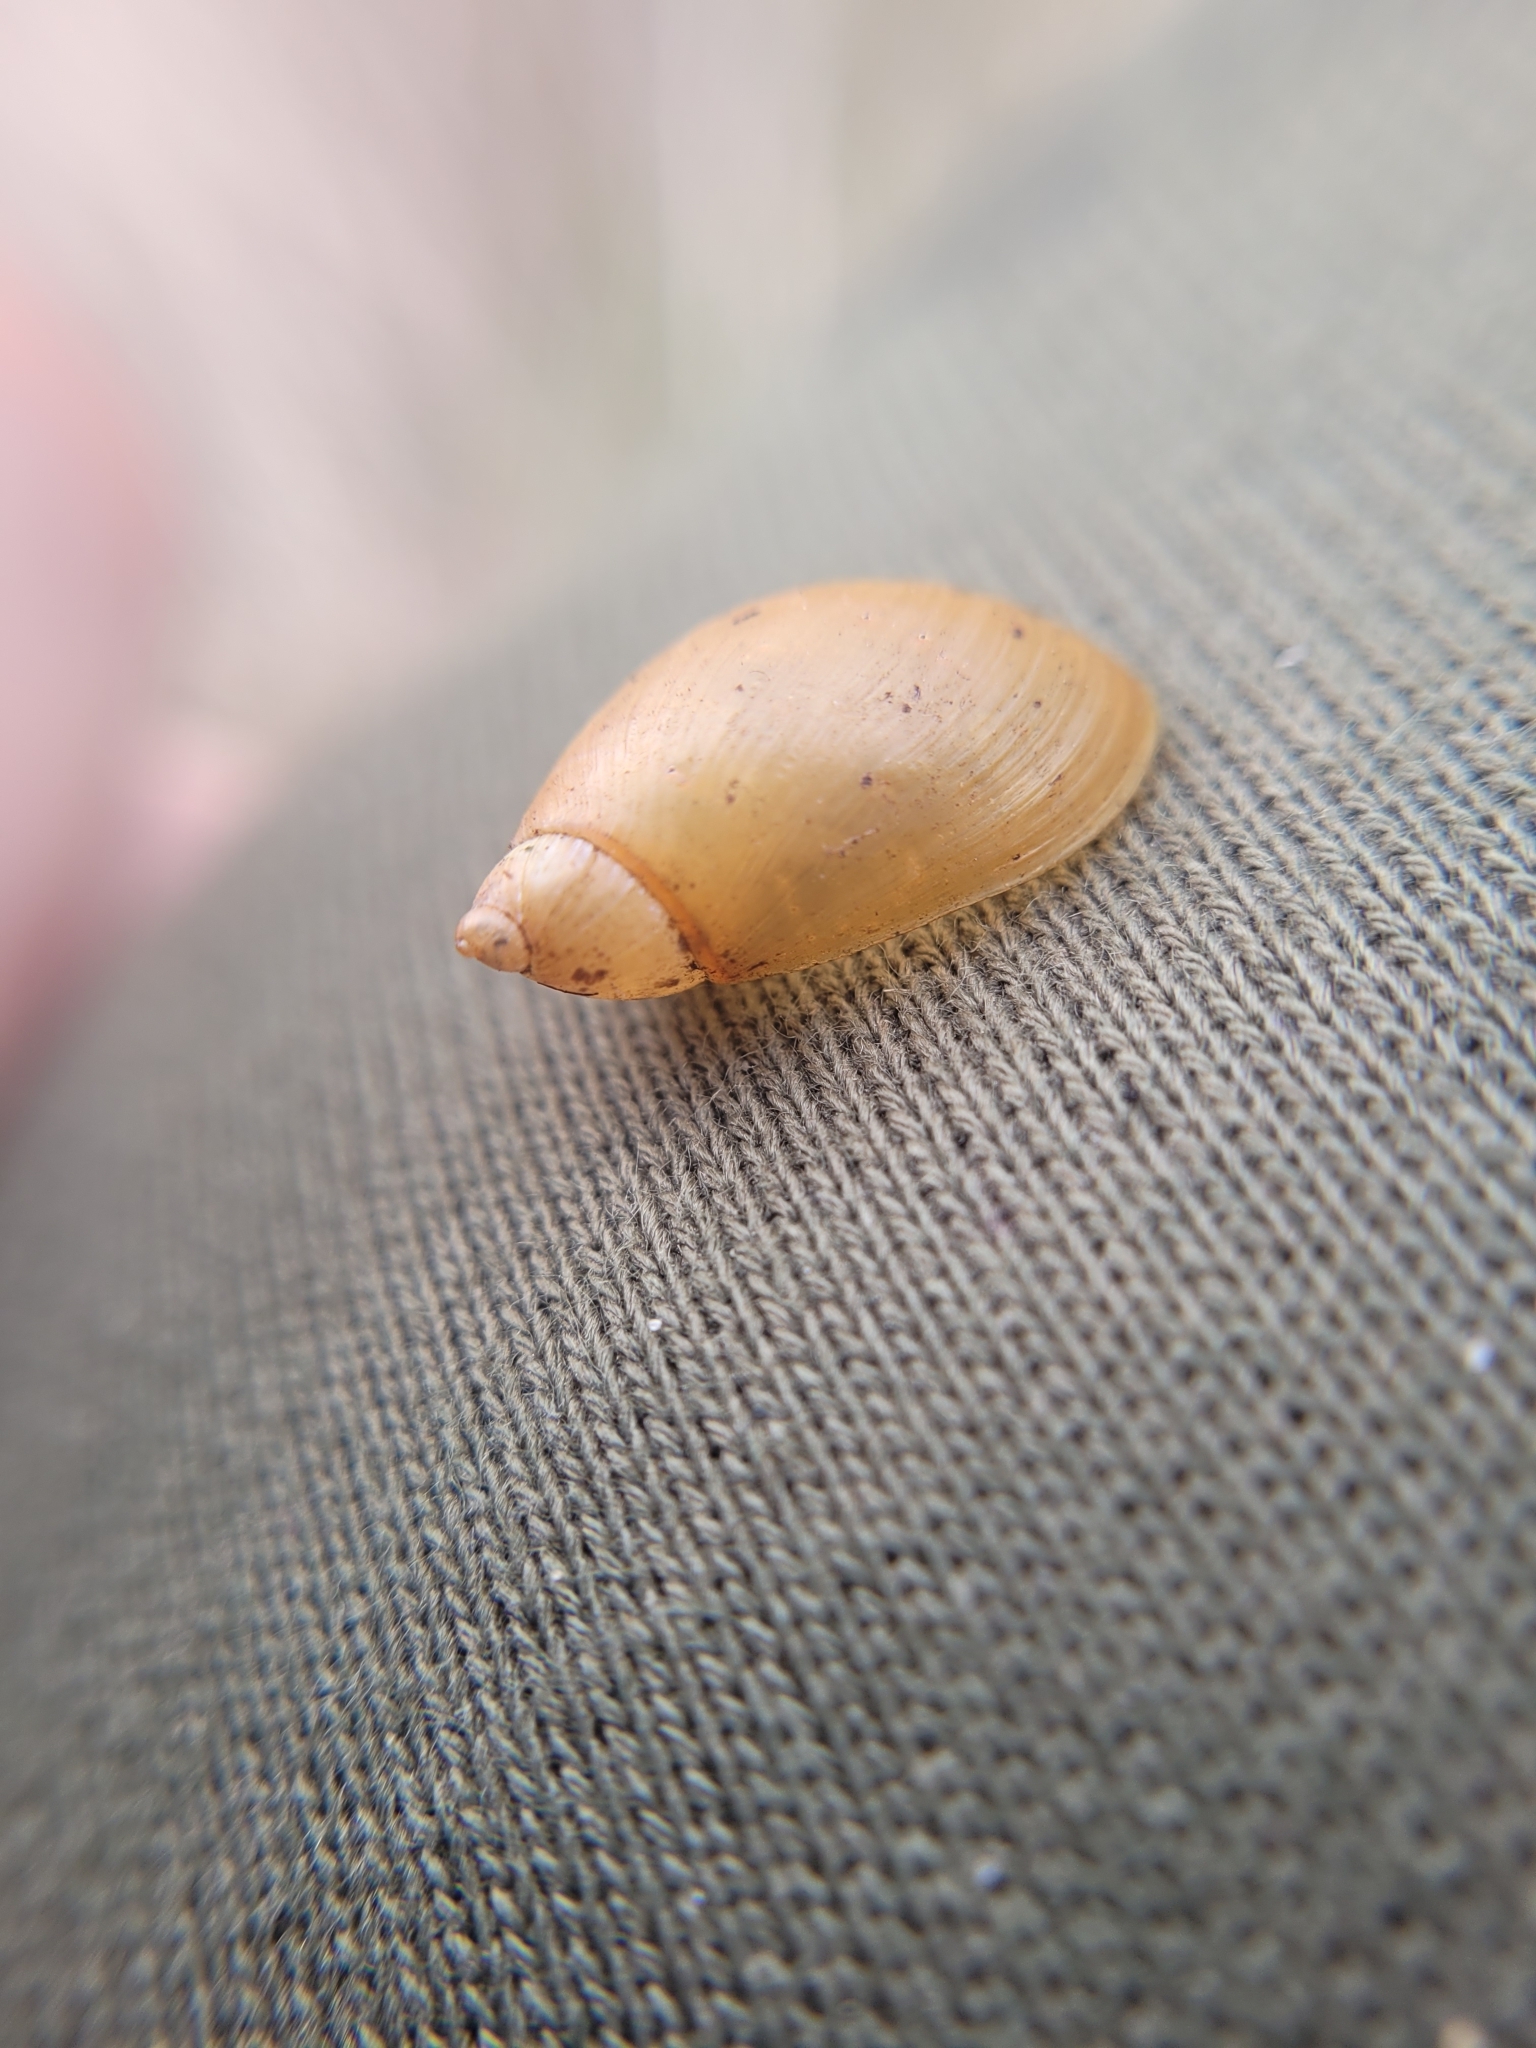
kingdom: Animalia
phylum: Mollusca
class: Gastropoda
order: Stylommatophora
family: Succineidae
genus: Succinea
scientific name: Succinea putris
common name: European ambersnail
